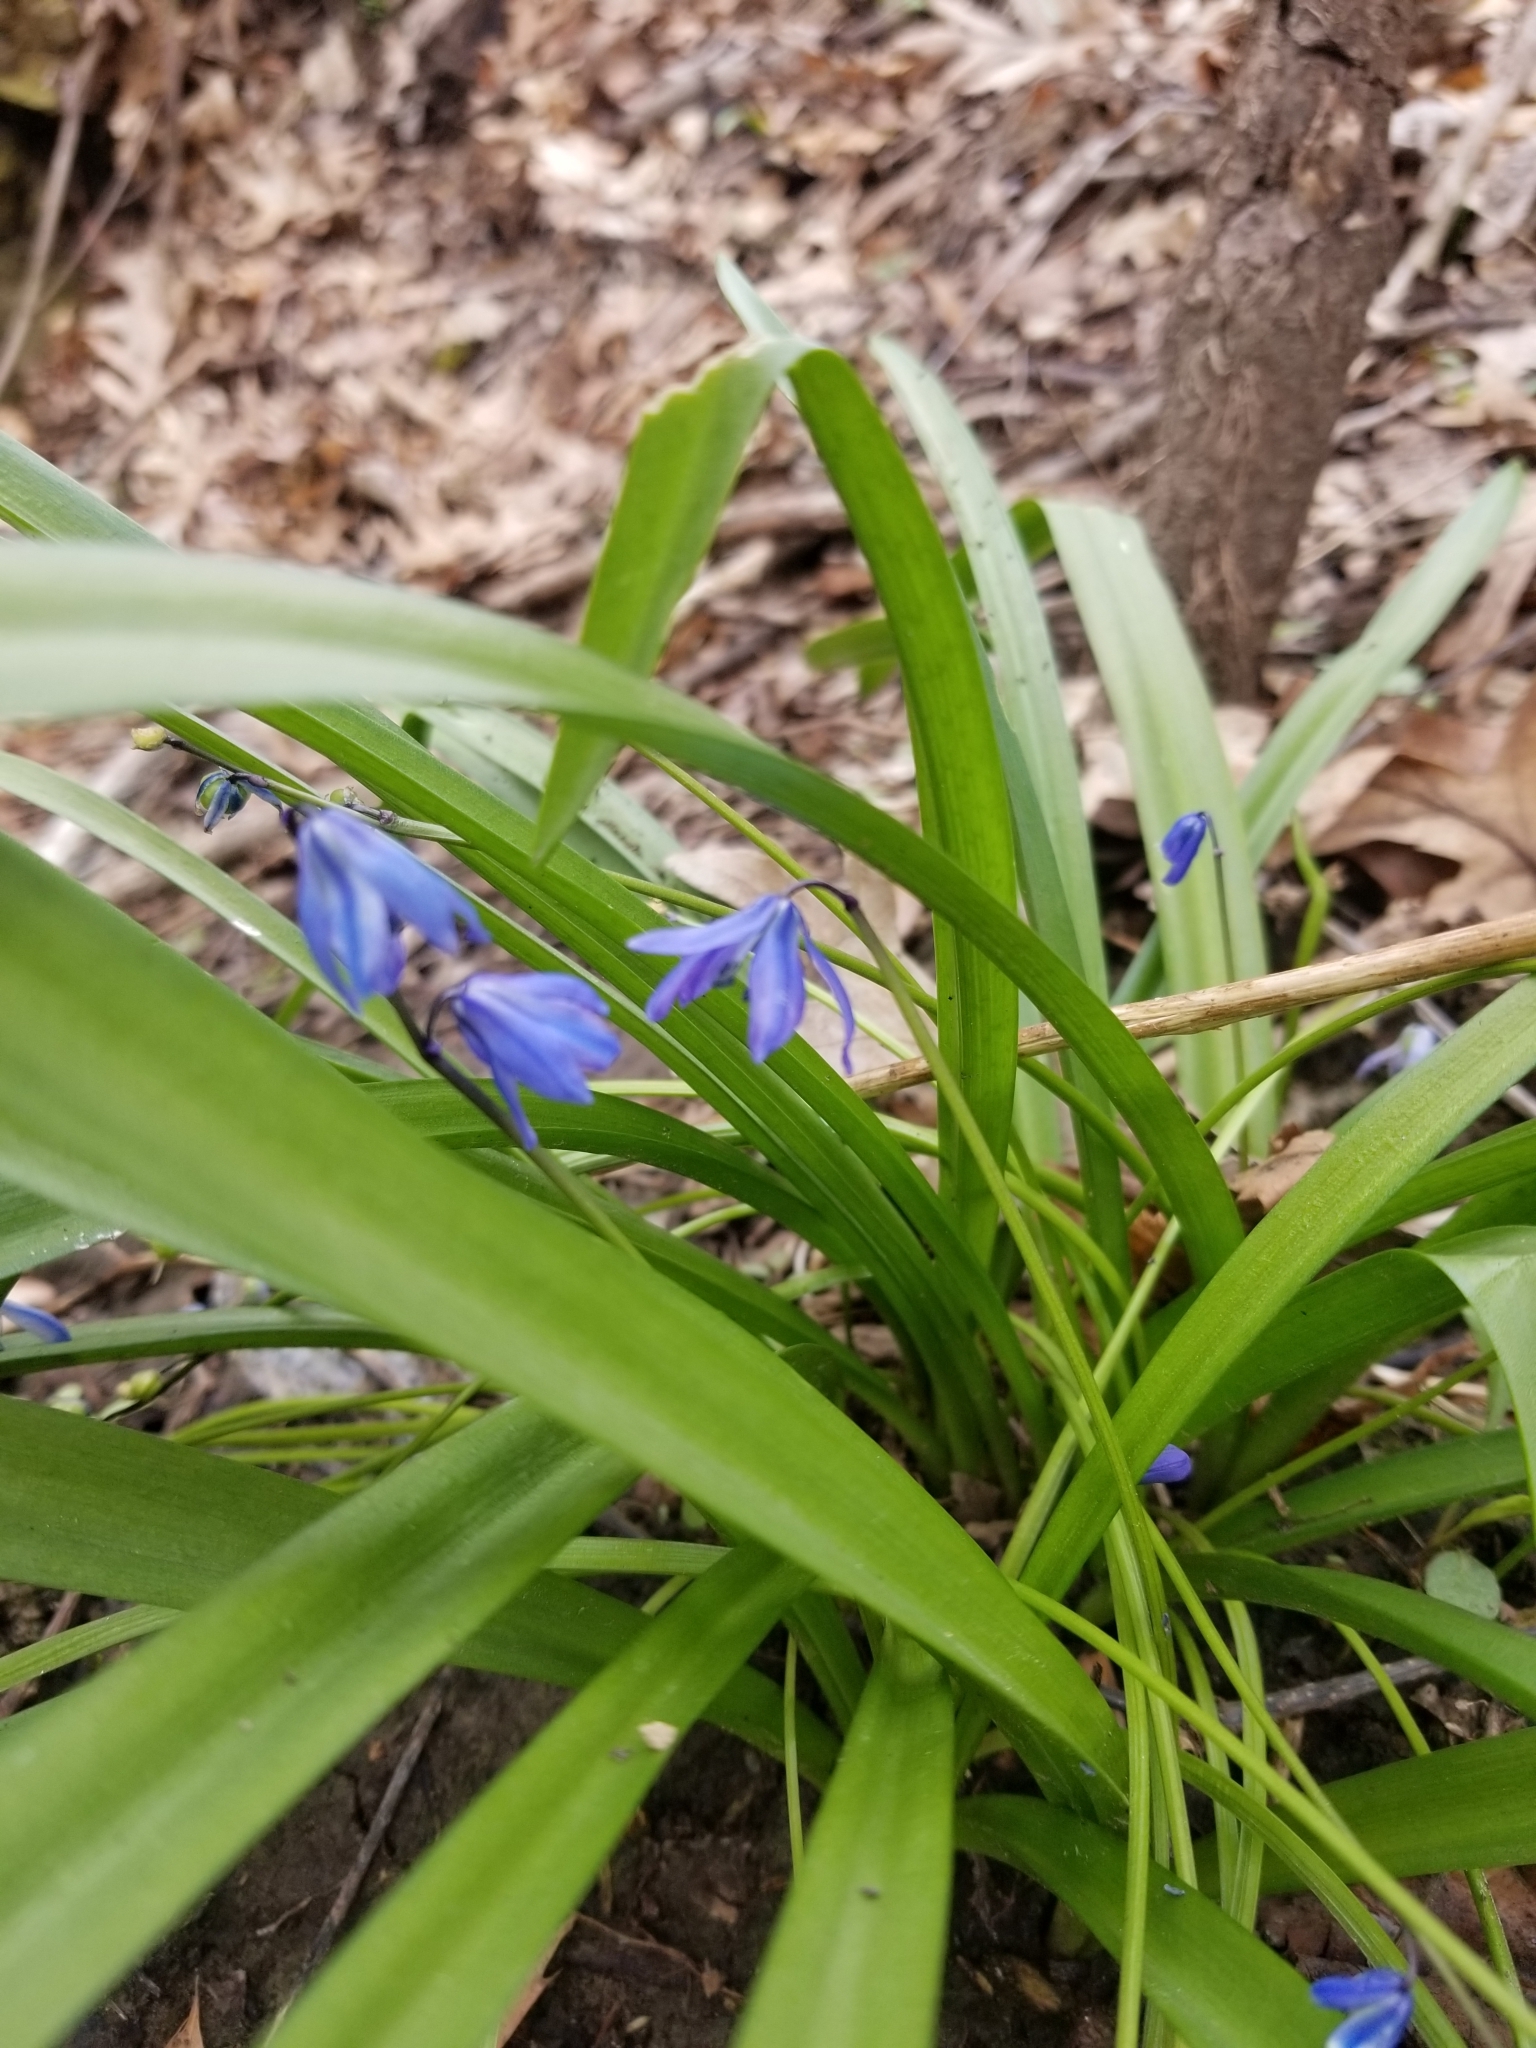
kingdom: Plantae
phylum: Tracheophyta
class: Liliopsida
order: Asparagales
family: Asparagaceae
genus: Scilla
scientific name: Scilla siberica
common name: Siberian squill
